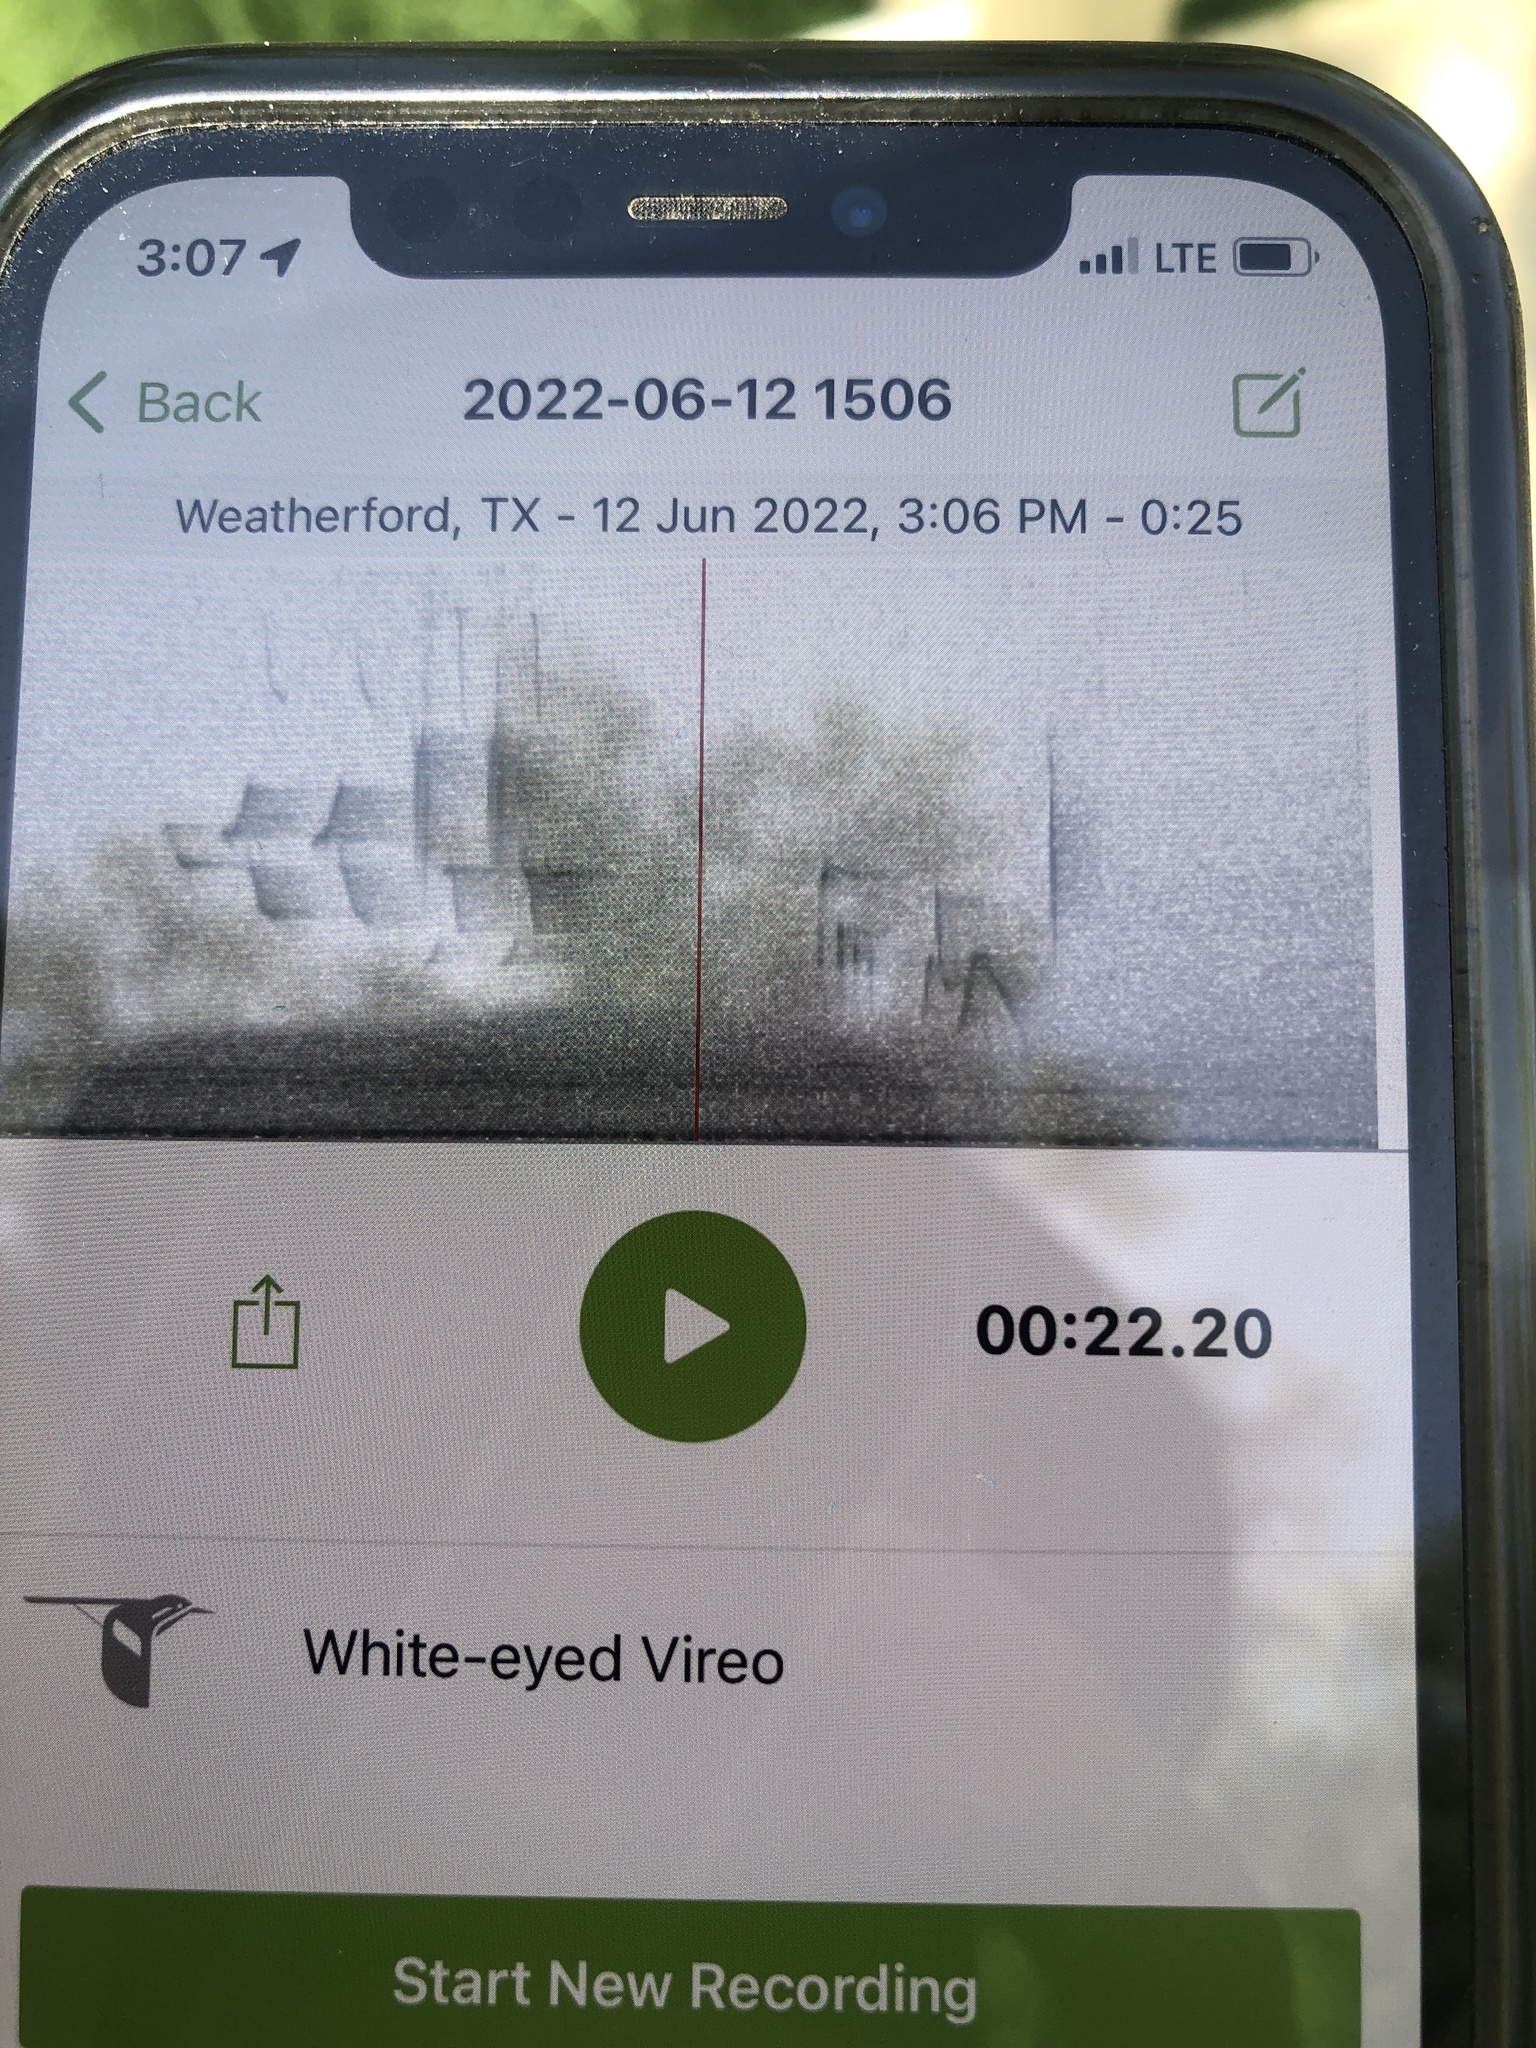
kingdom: Animalia
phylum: Chordata
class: Aves
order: Passeriformes
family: Vireonidae
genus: Vireo
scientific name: Vireo griseus
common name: White-eyed vireo
